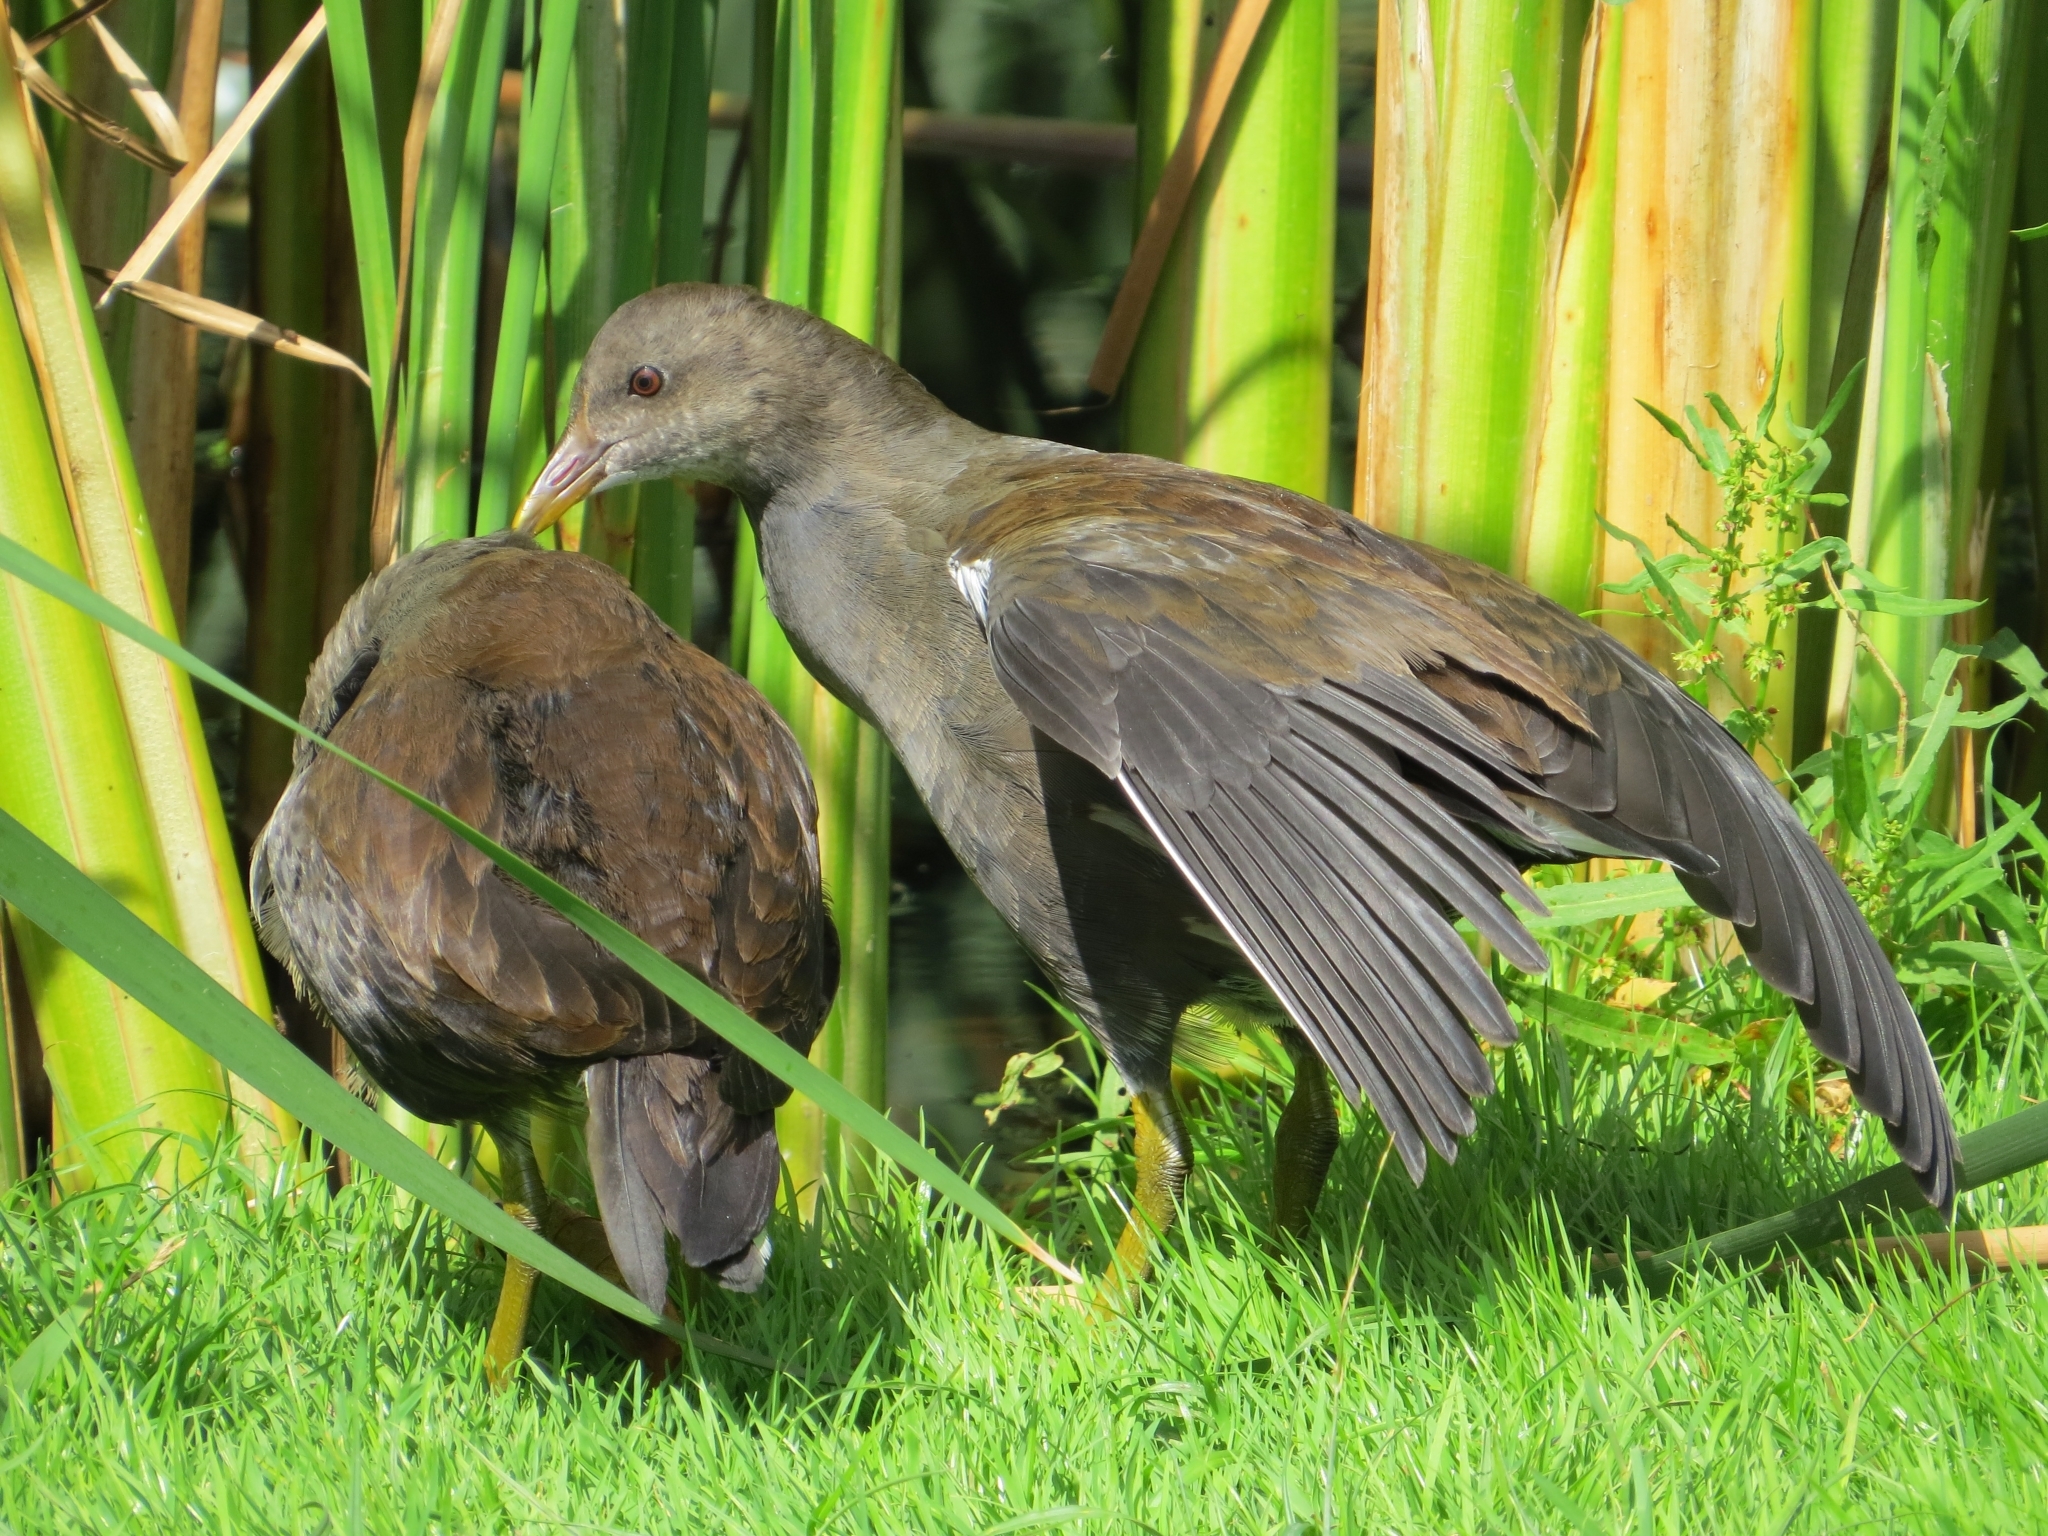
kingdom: Animalia
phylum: Chordata
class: Aves
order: Gruiformes
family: Rallidae
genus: Gallinula
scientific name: Gallinula chloropus
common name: Common moorhen
